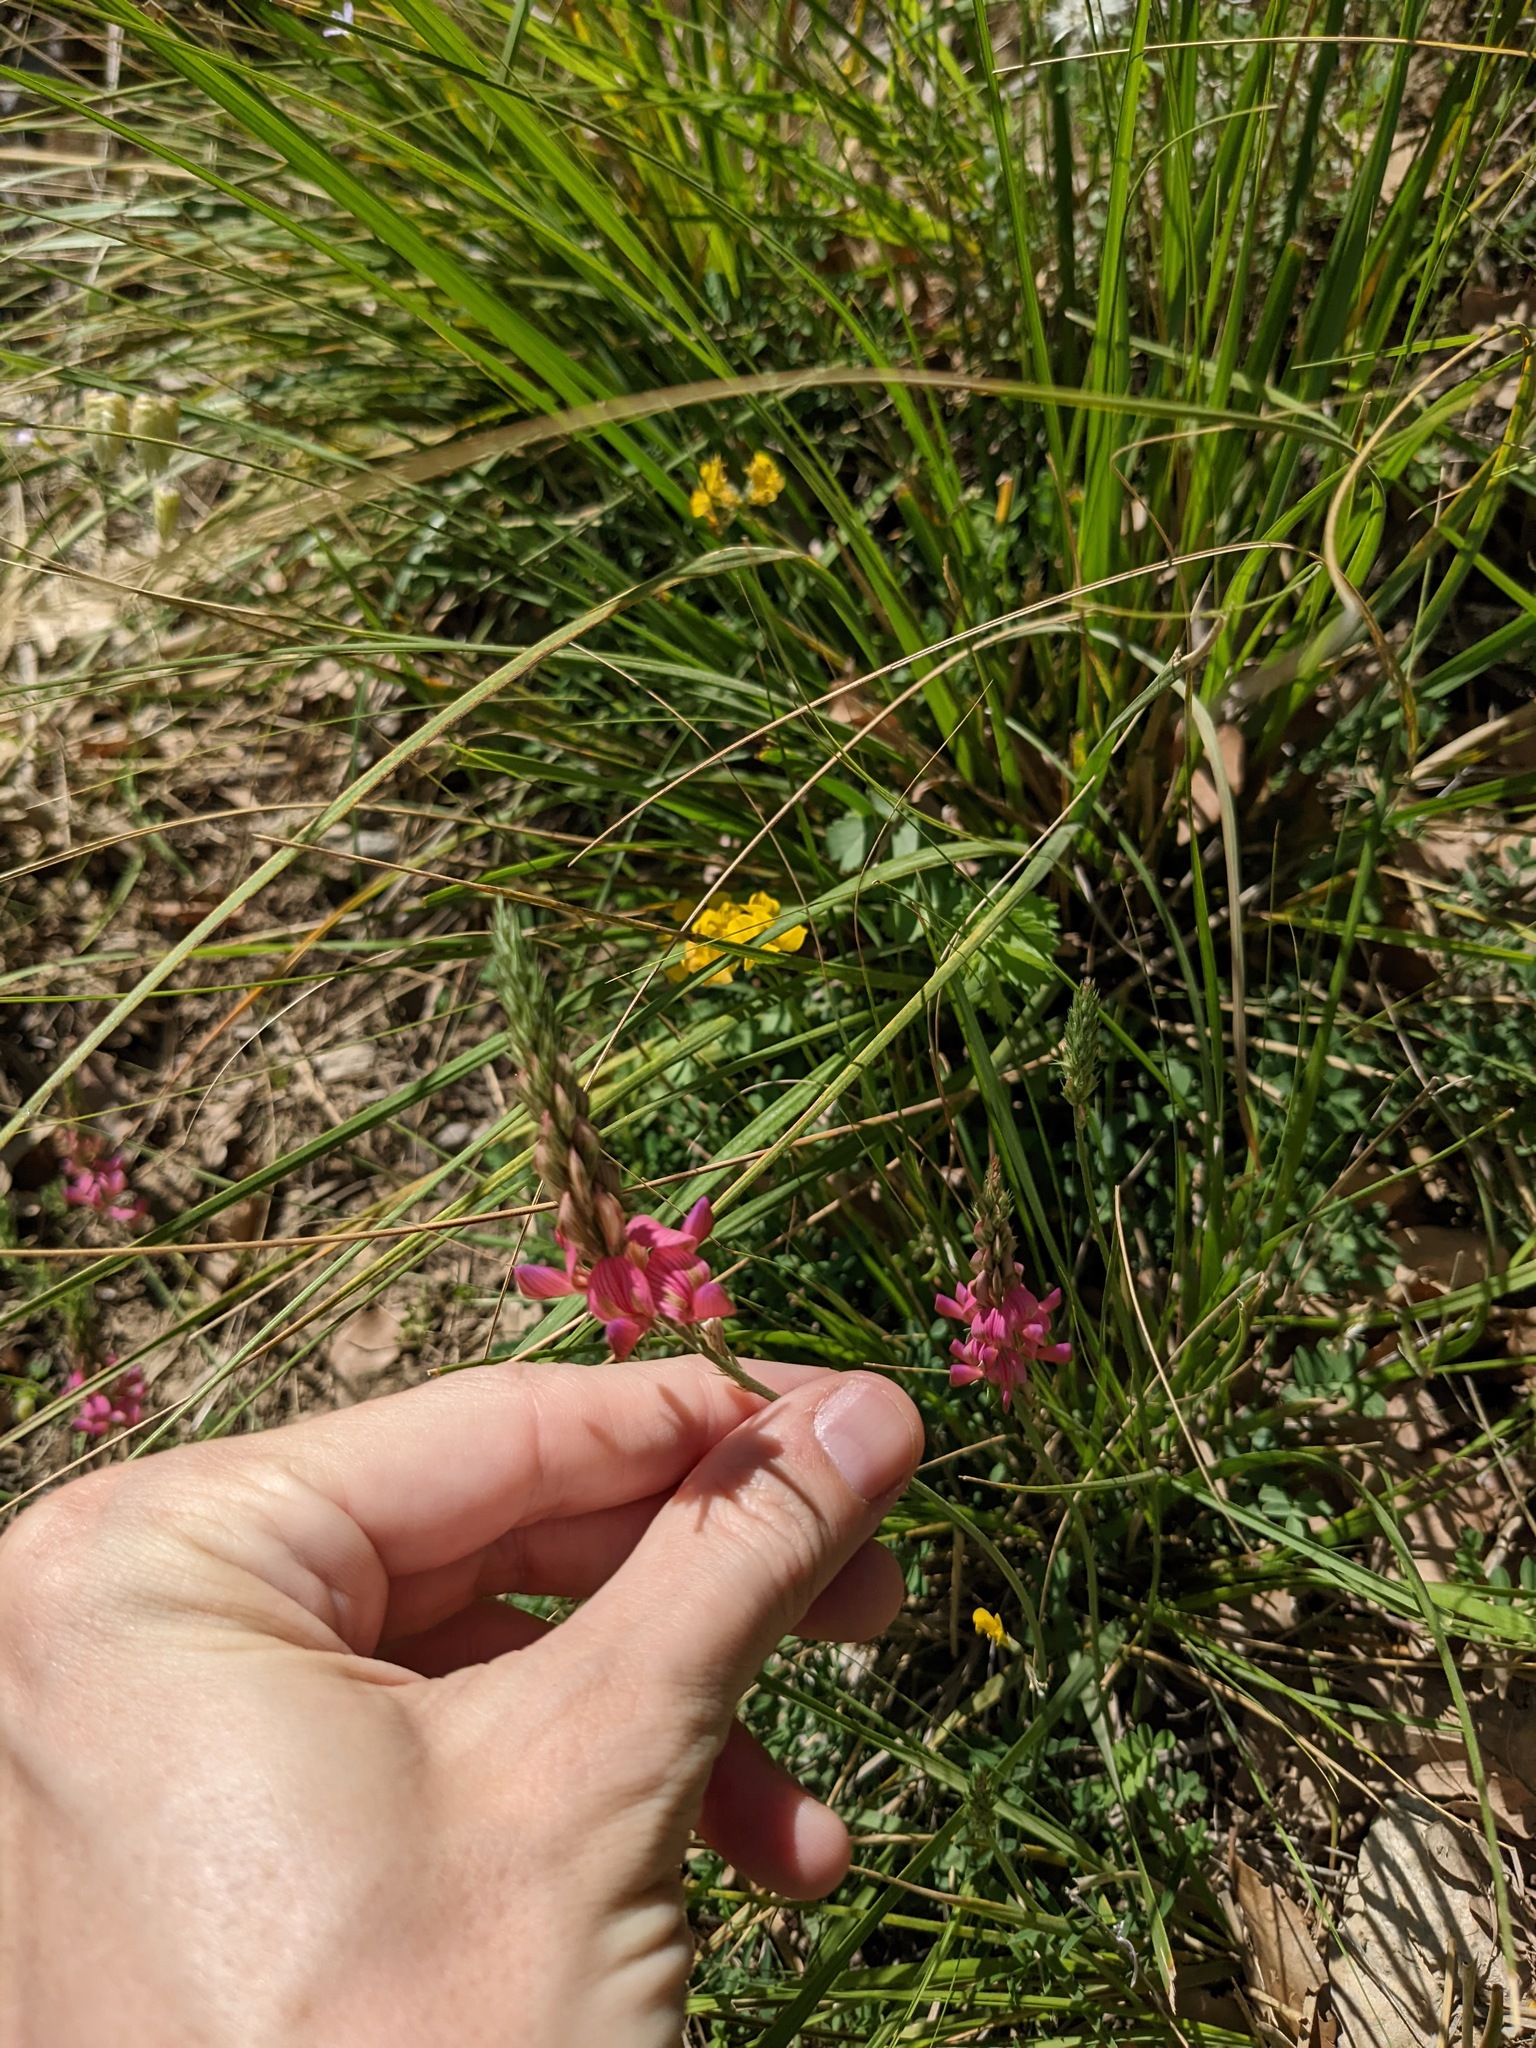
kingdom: Plantae
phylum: Tracheophyta
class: Magnoliopsida
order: Fabales
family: Fabaceae
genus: Onobrychis
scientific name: Onobrychis viciifolia
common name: Sainfoin
